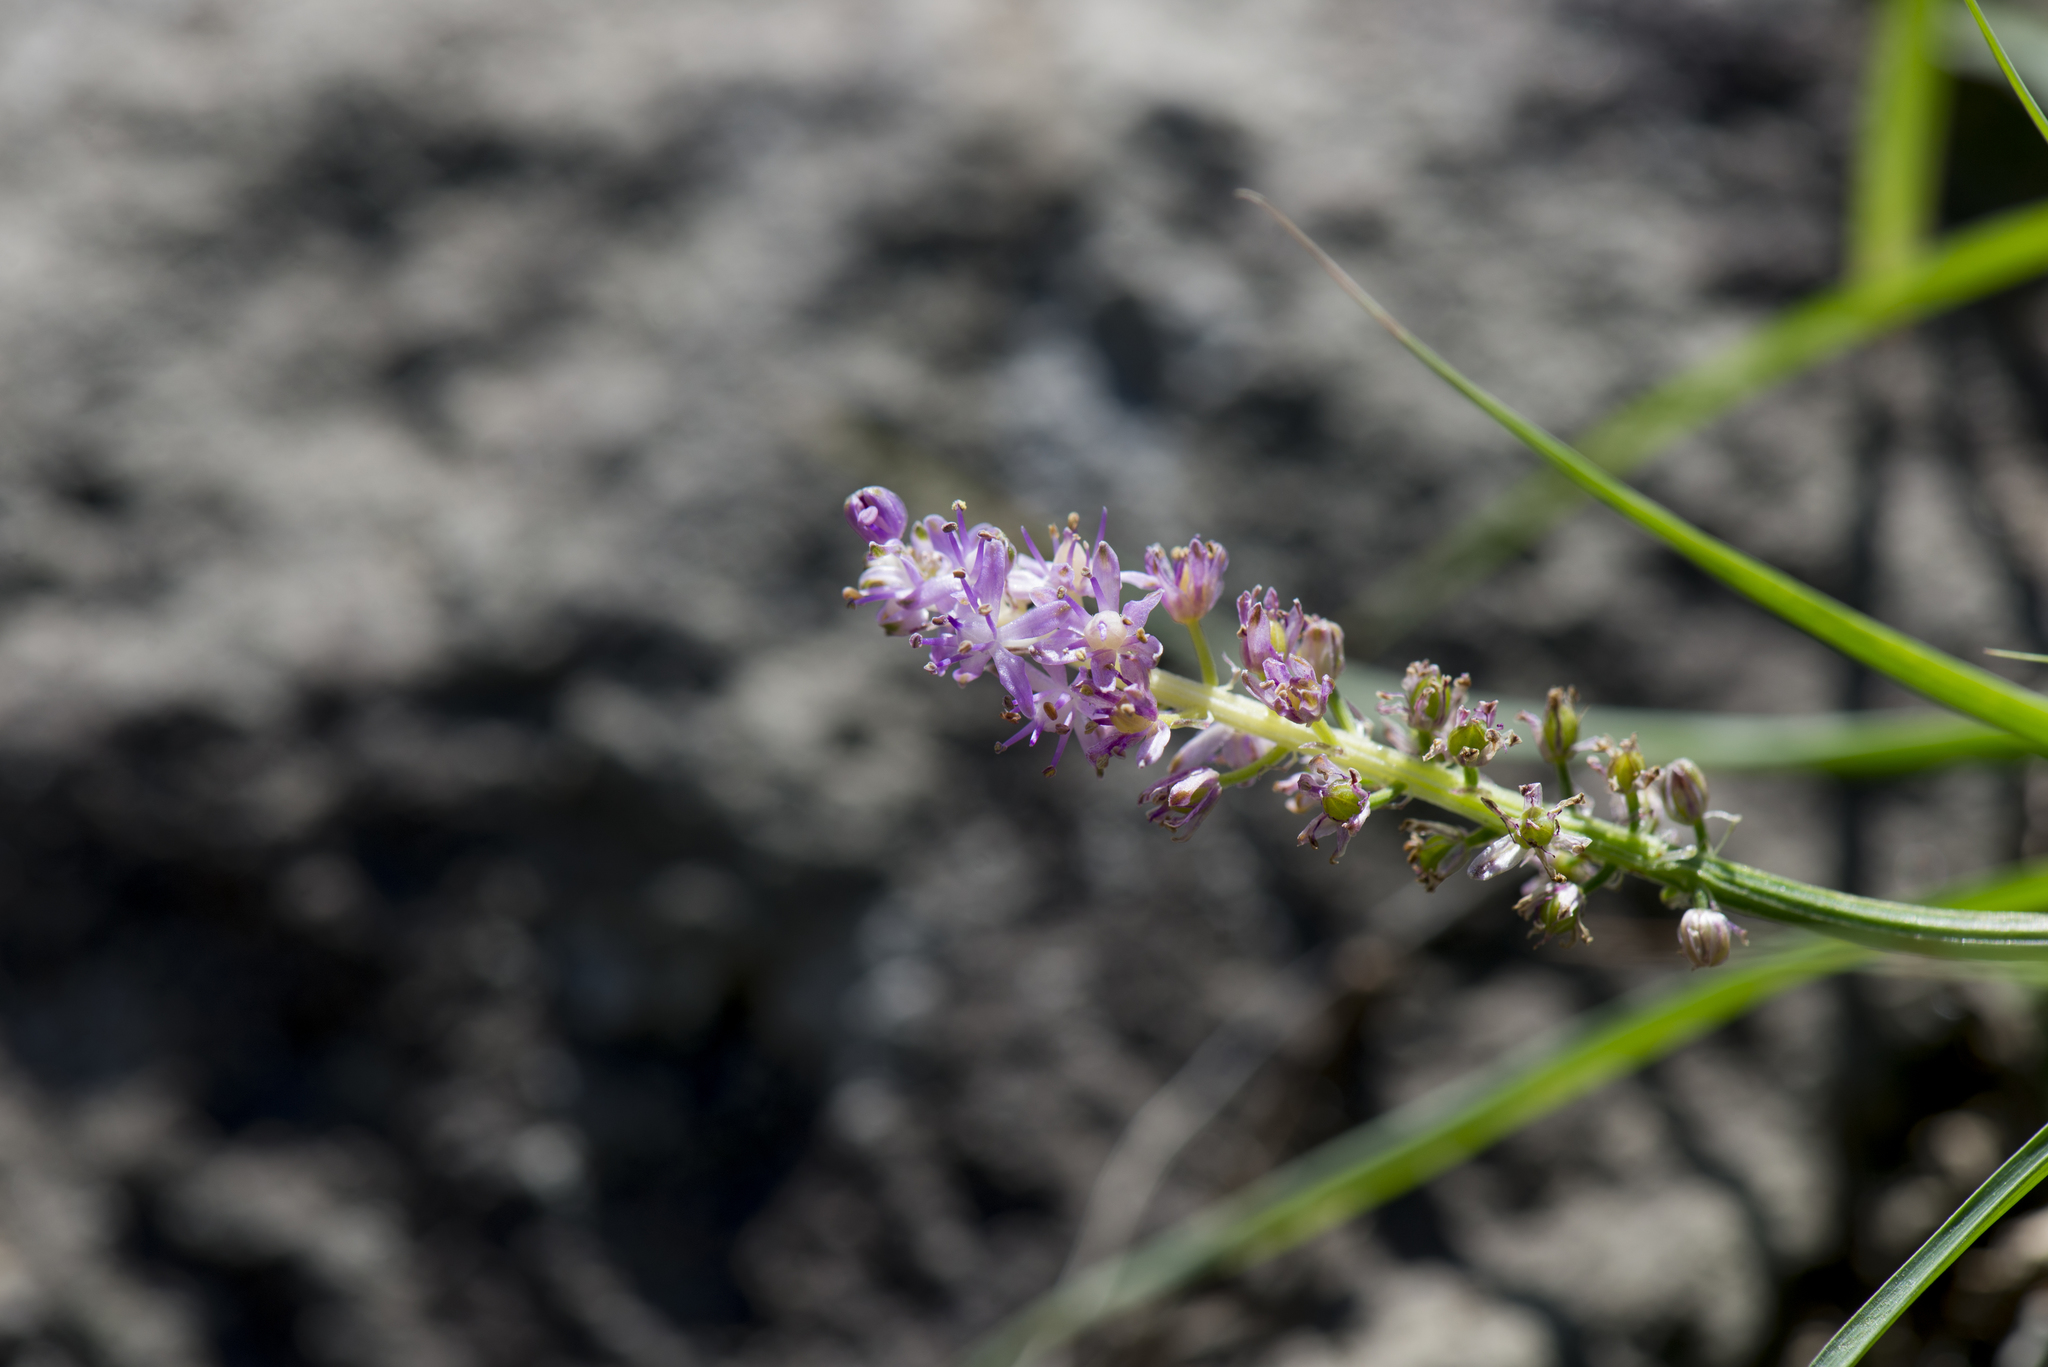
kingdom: Plantae
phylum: Tracheophyta
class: Liliopsida
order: Asparagales
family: Asparagaceae
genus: Barnardia
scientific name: Barnardia japonica
